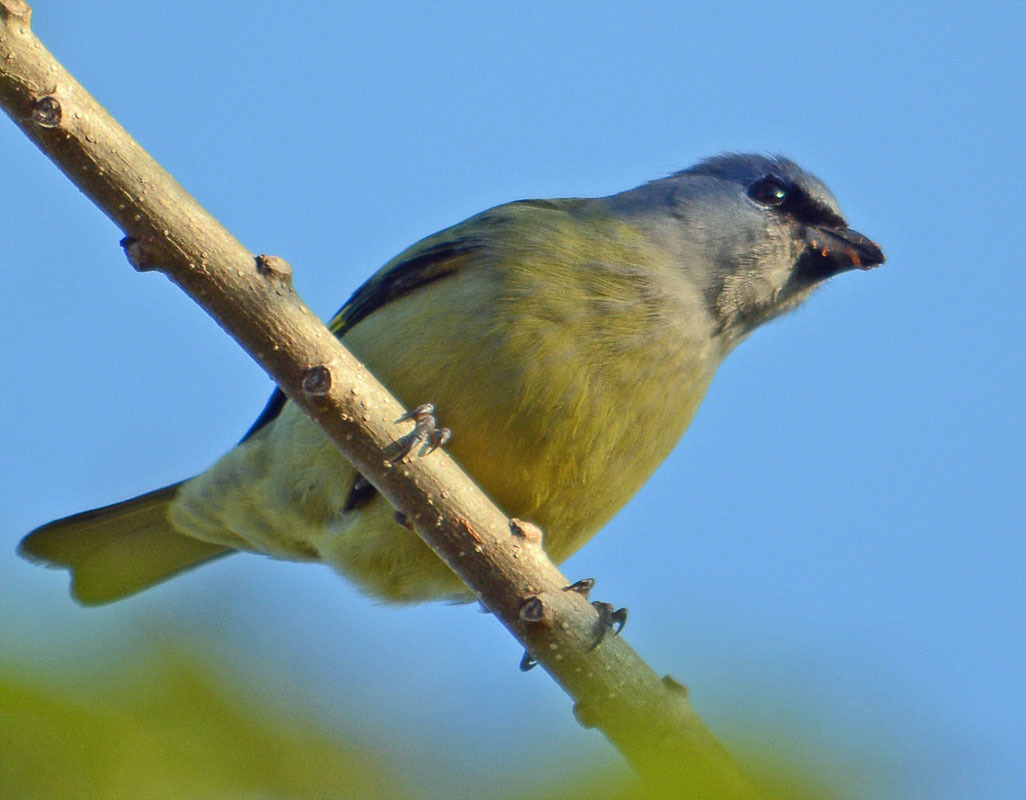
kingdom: Animalia
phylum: Chordata
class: Aves
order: Passeriformes
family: Thraupidae
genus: Thraupis
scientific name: Thraupis abbas
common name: Yellow-winged tanager
